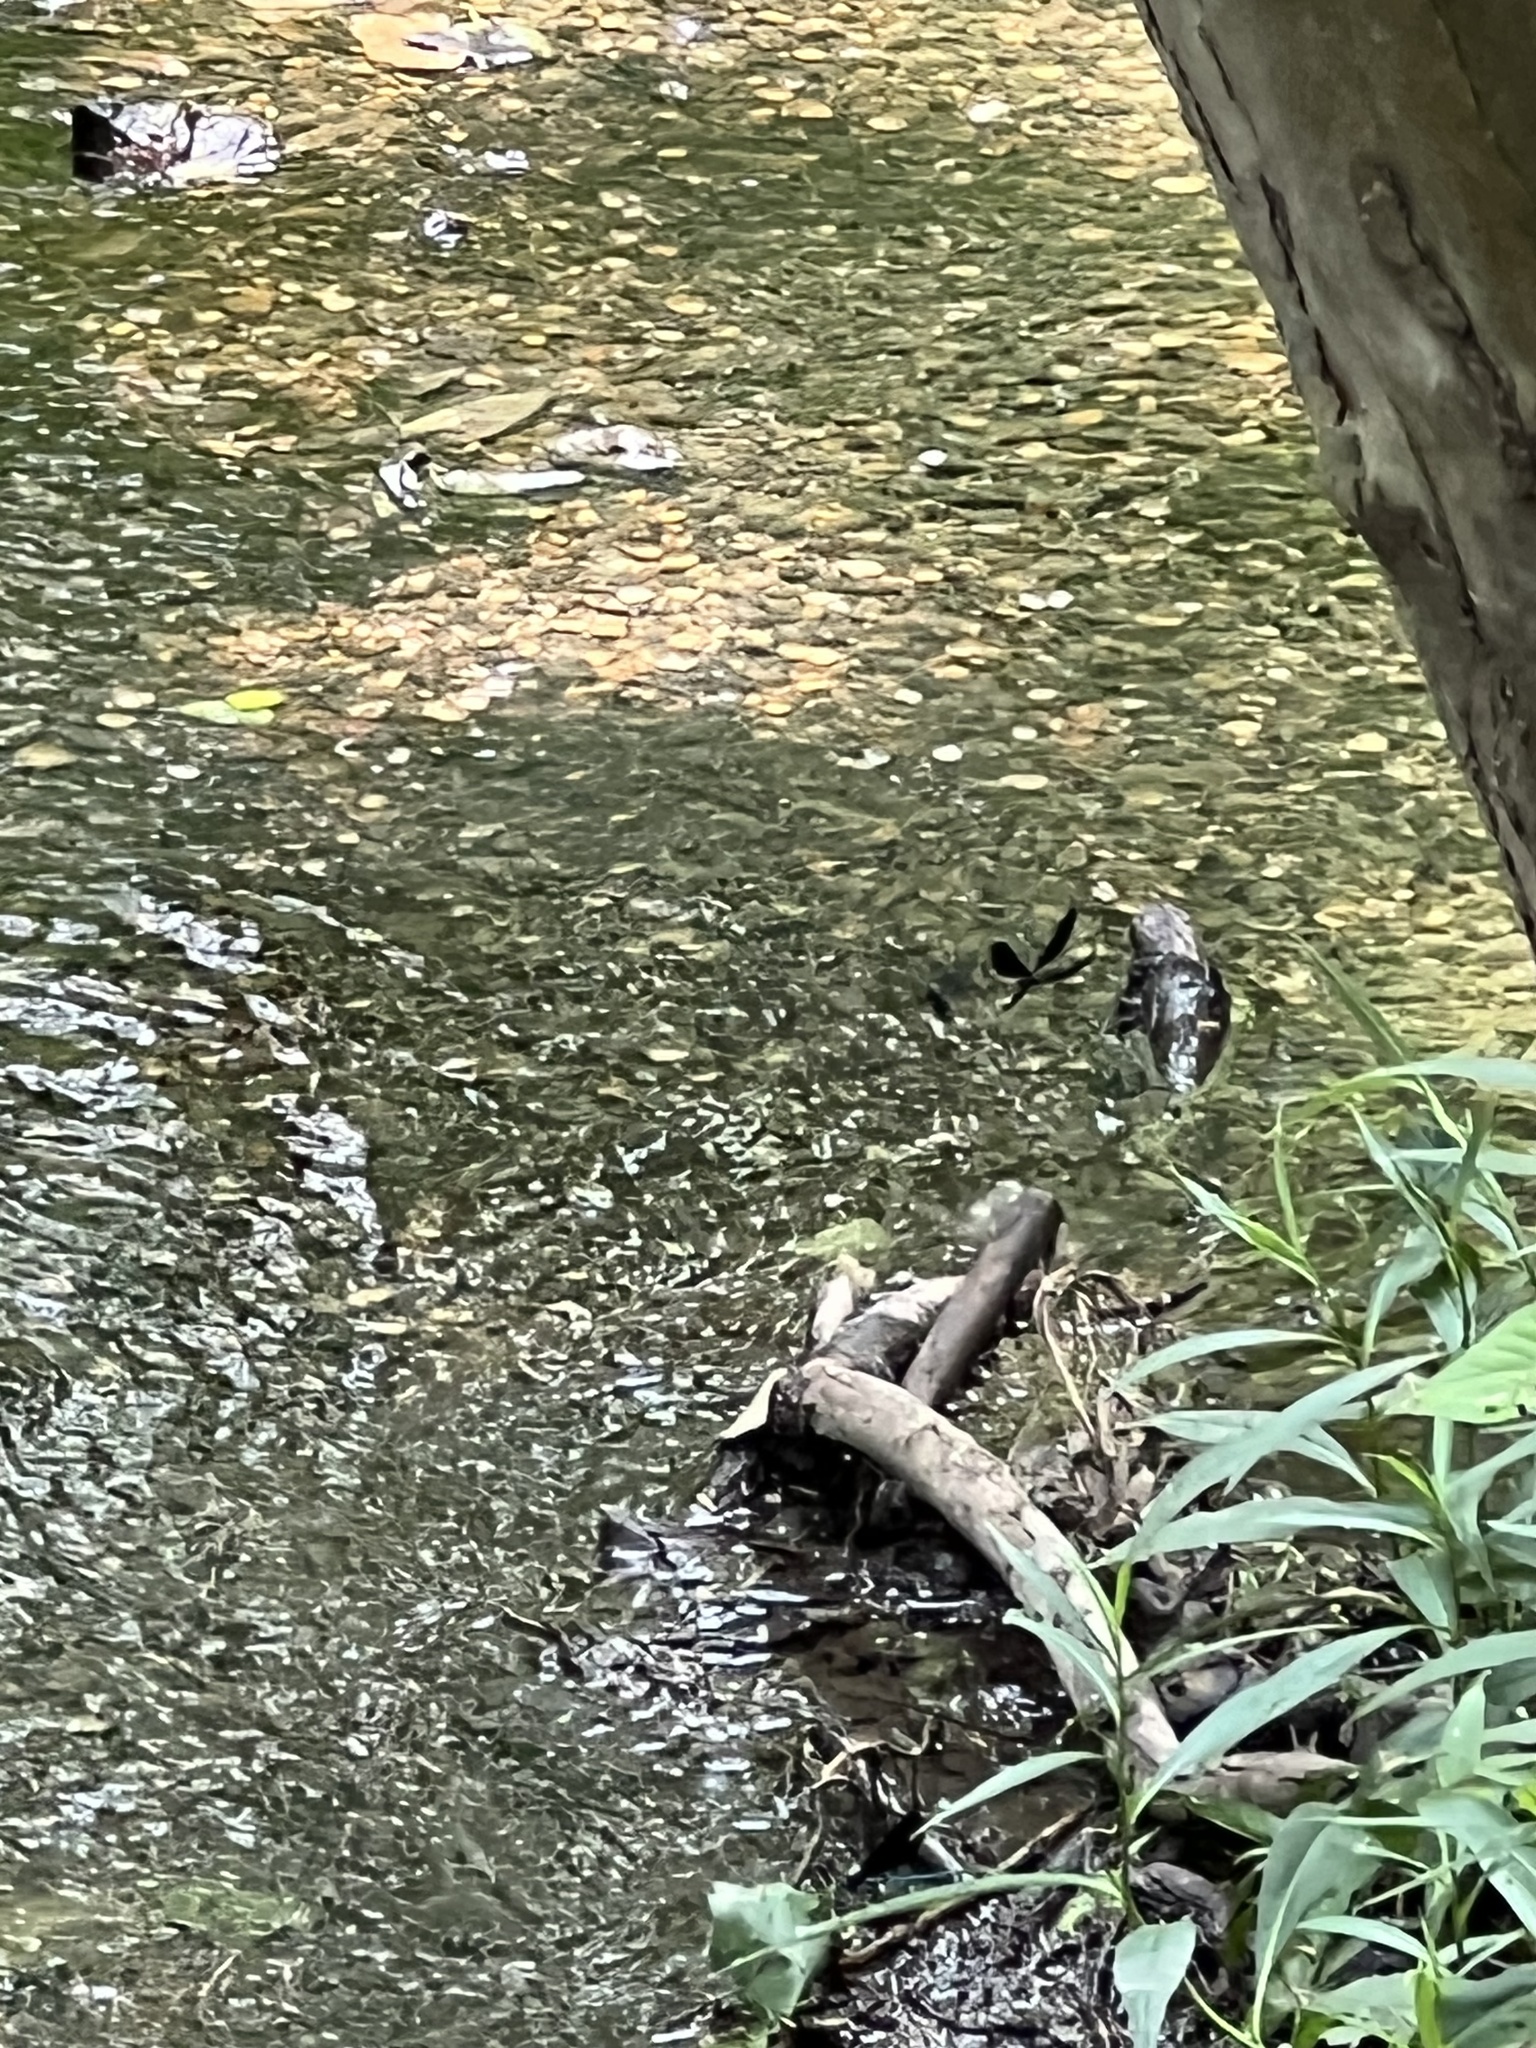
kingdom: Animalia
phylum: Arthropoda
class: Insecta
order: Odonata
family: Calopterygidae
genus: Calopteryx
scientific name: Calopteryx maculata
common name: Ebony jewelwing
